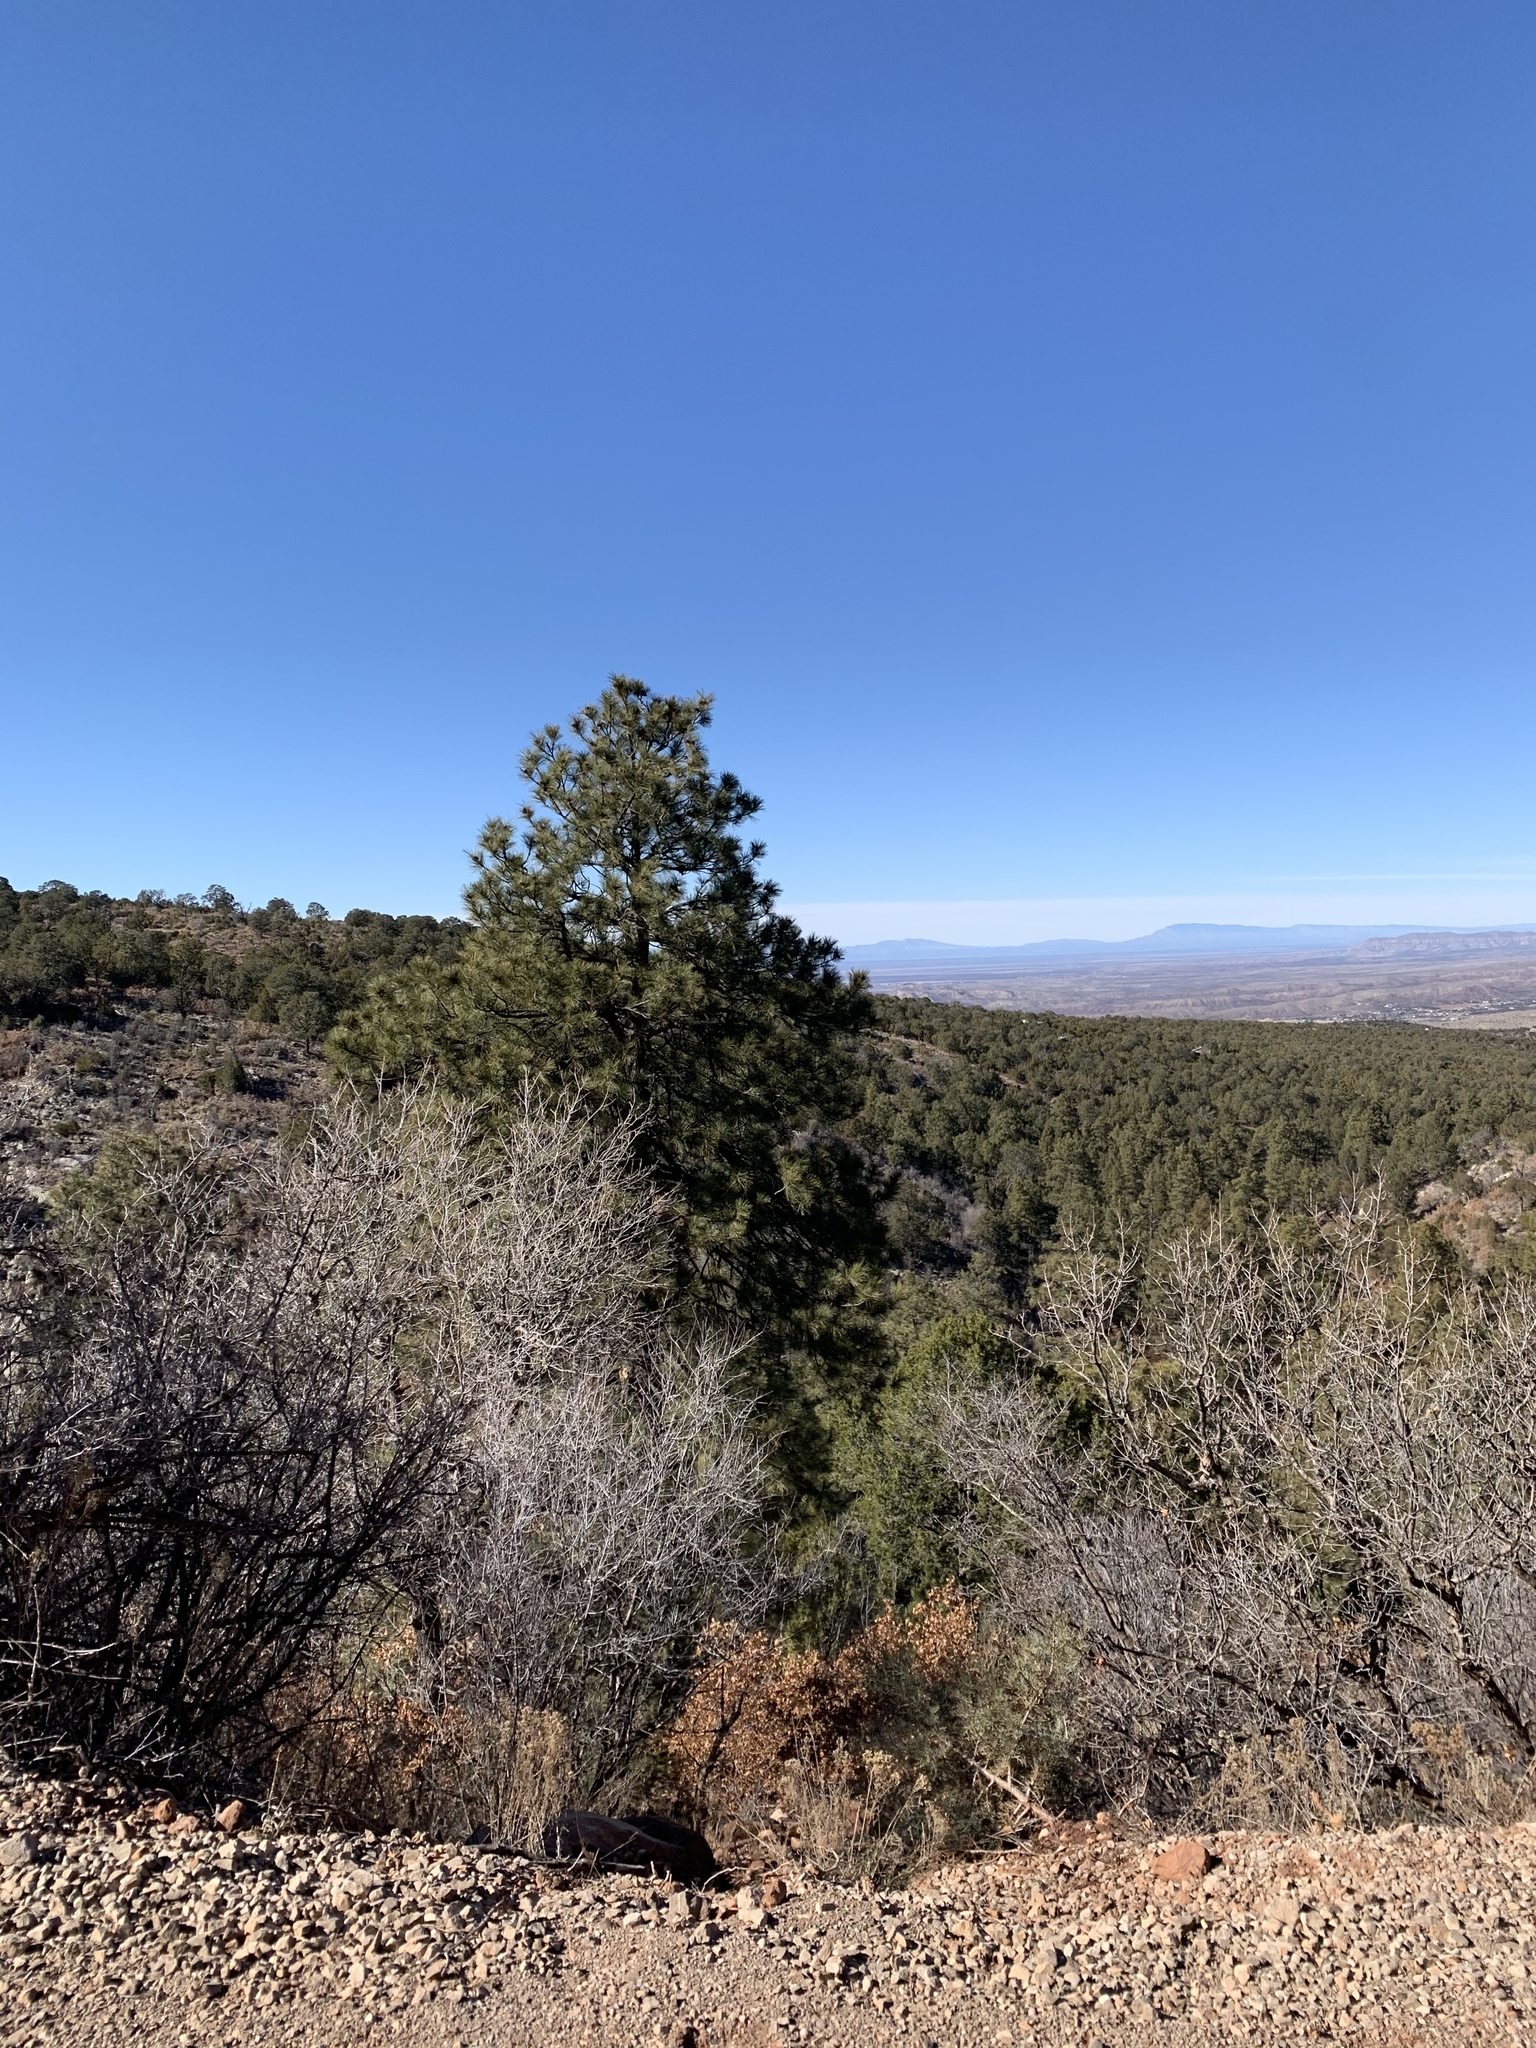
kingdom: Plantae
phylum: Tracheophyta
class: Pinopsida
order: Pinales
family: Pinaceae
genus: Pinus
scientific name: Pinus ponderosa
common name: Western yellow-pine
